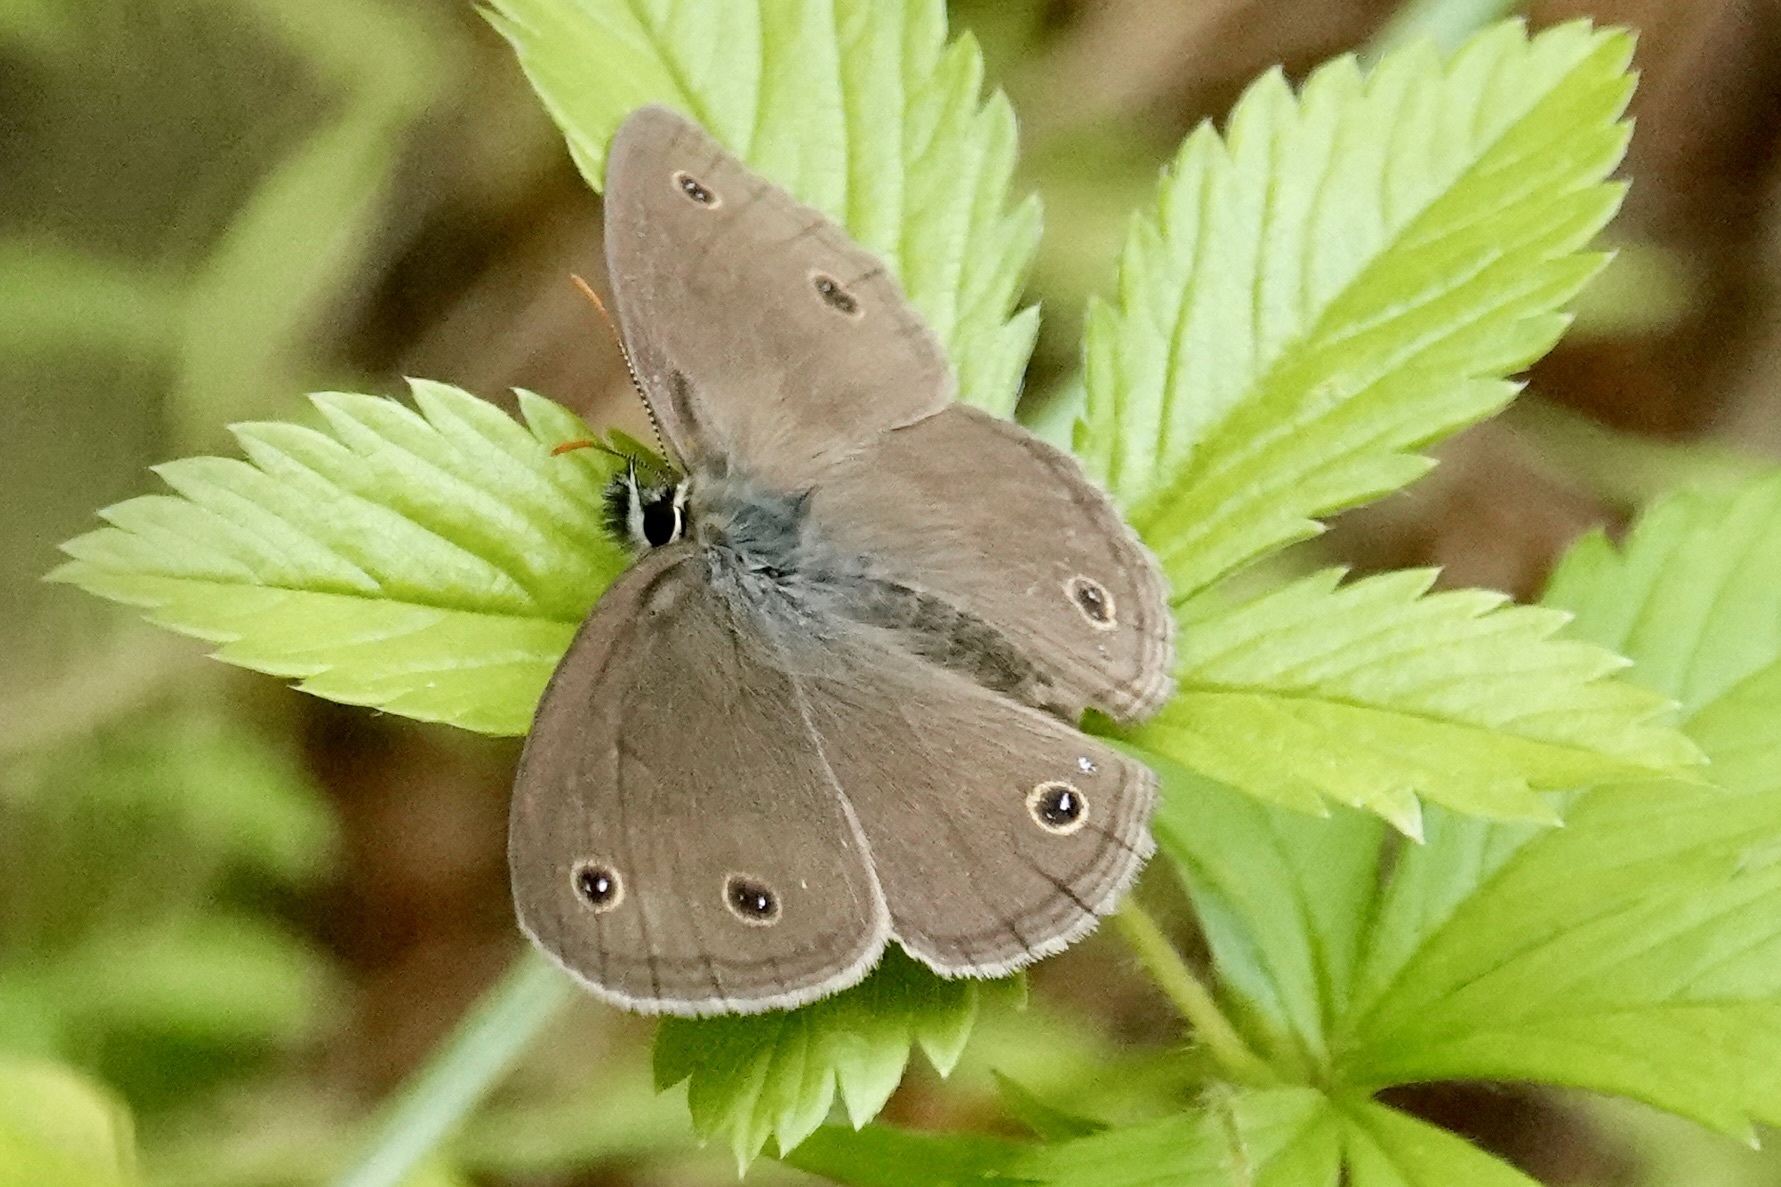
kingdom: Animalia
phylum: Arthropoda
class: Insecta
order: Lepidoptera
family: Nymphalidae
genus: Euptychia
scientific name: Euptychia cymela
